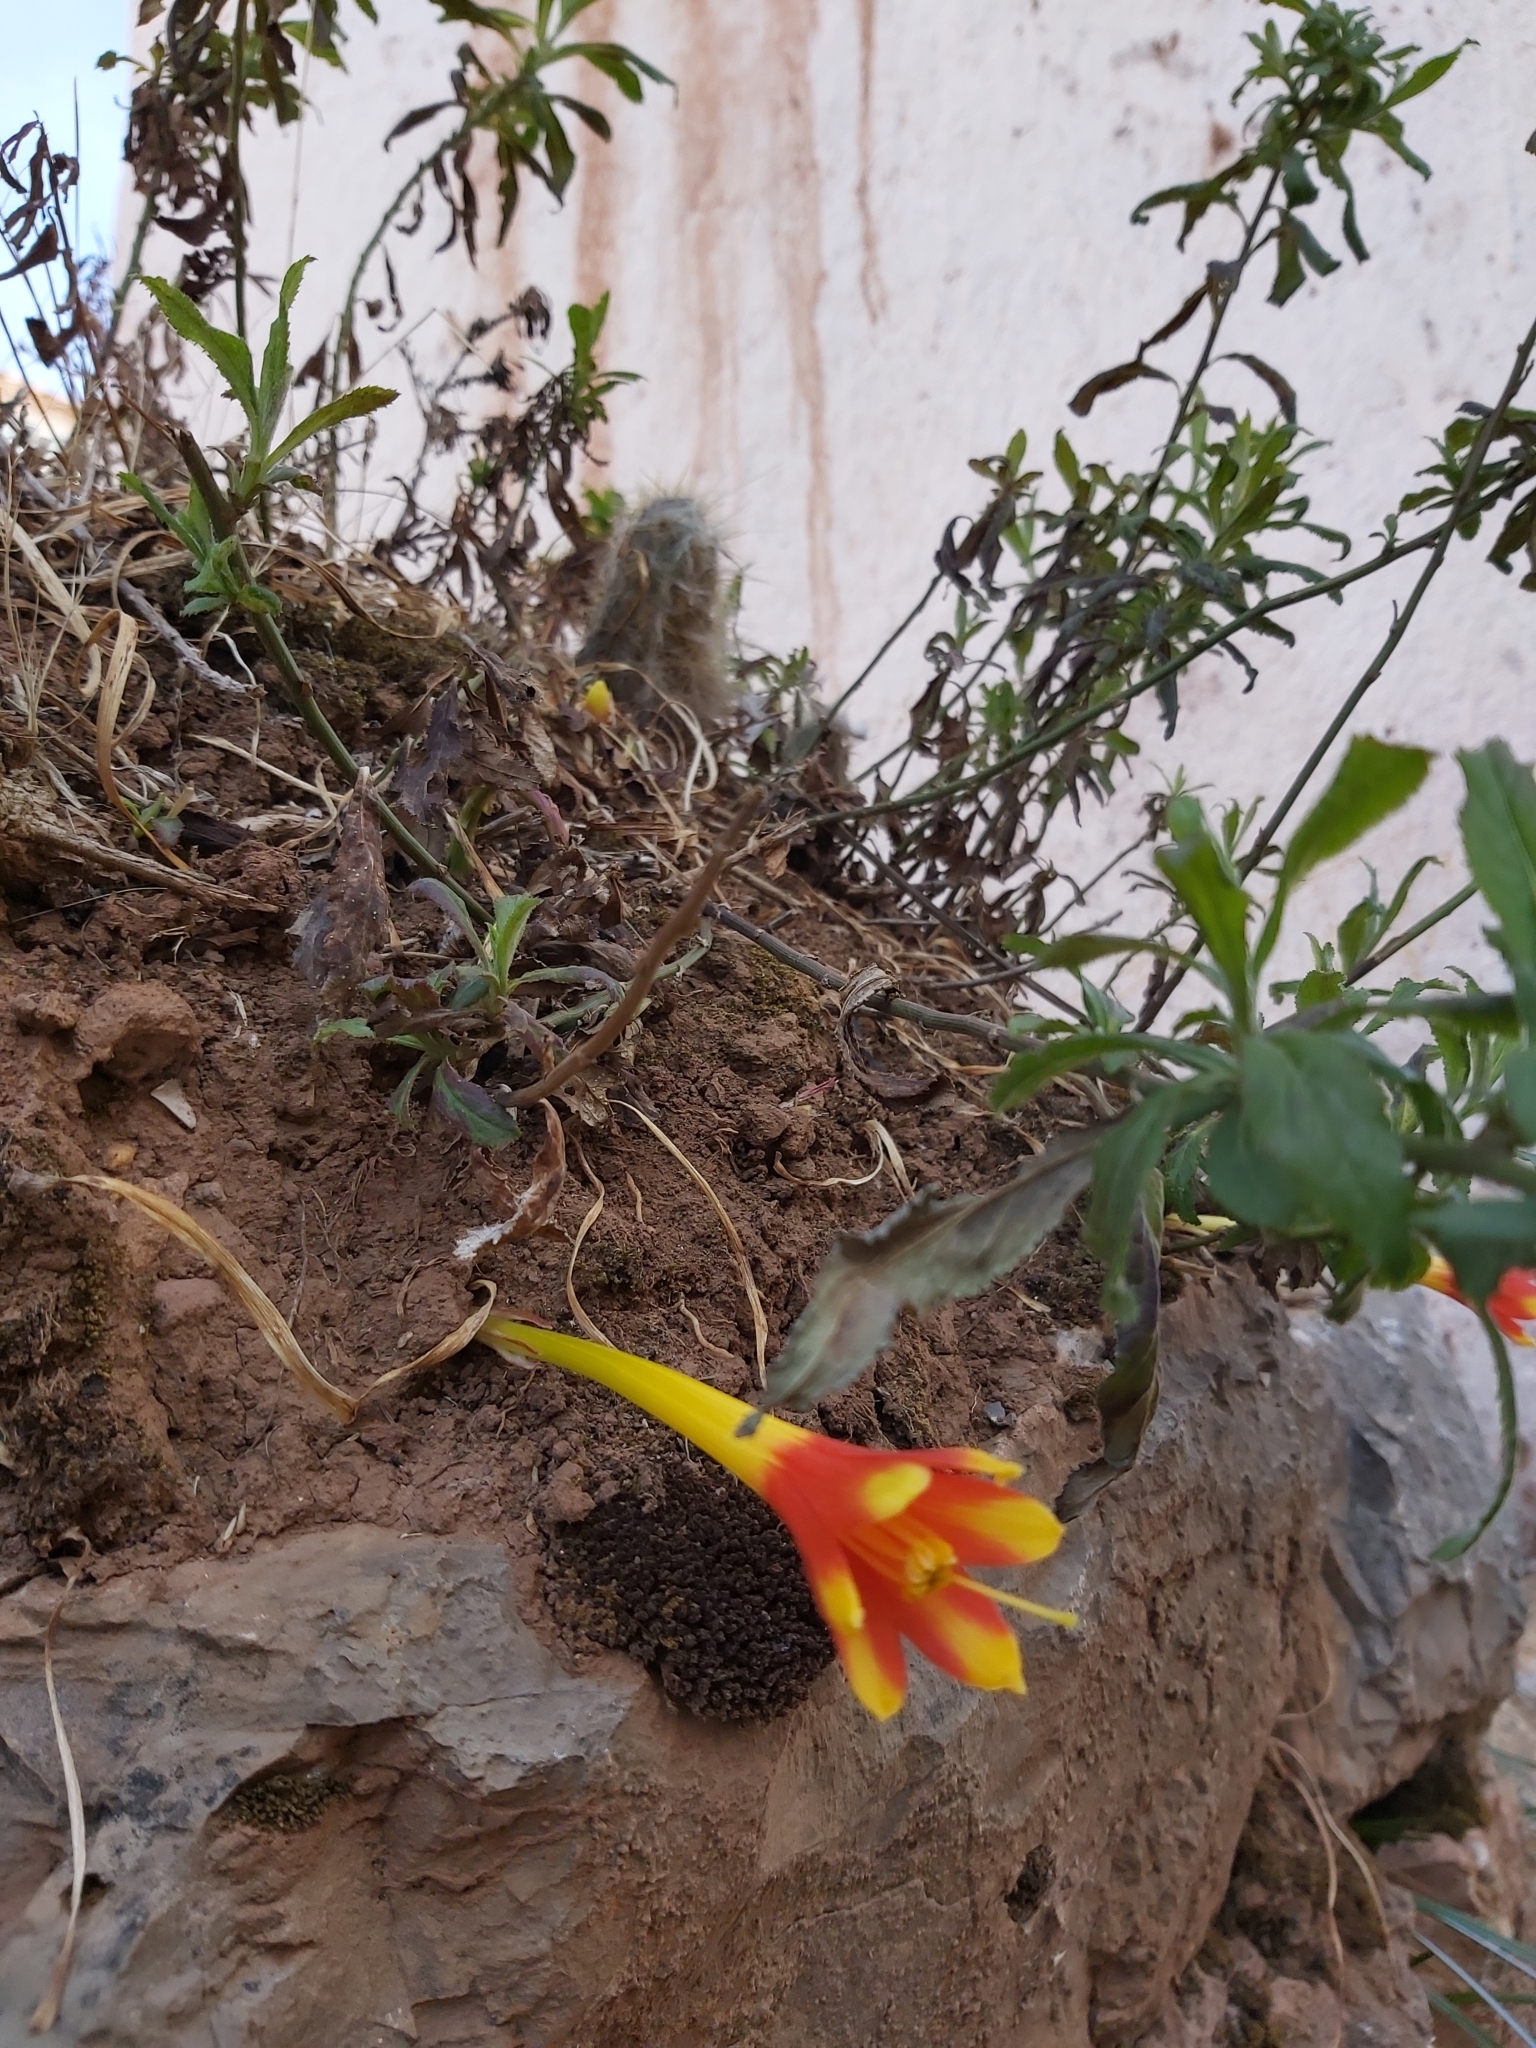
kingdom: Plantae
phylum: Tracheophyta
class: Liliopsida
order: Asparagales
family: Amaryllidaceae
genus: Clinanthus
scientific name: Clinanthus humilis
